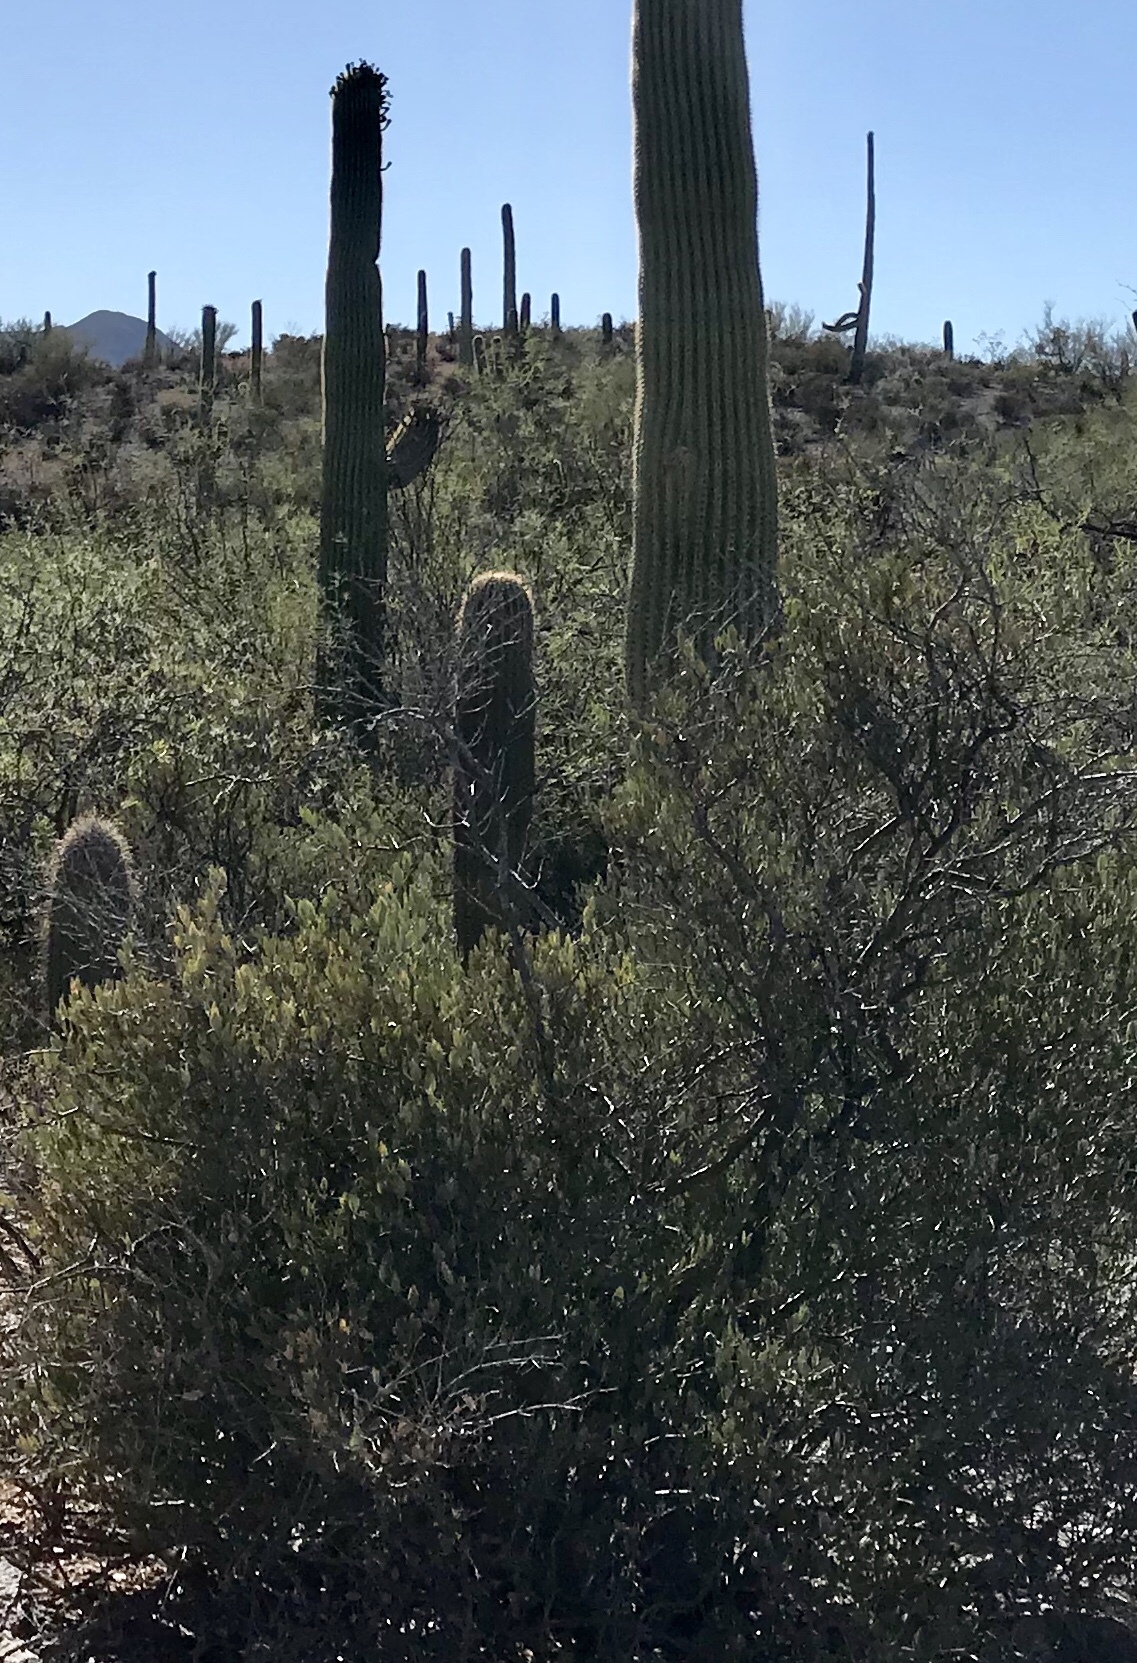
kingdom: Plantae
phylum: Tracheophyta
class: Magnoliopsida
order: Caryophyllales
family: Simmondsiaceae
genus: Simmondsia
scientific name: Simmondsia chinensis
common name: Jojoba
